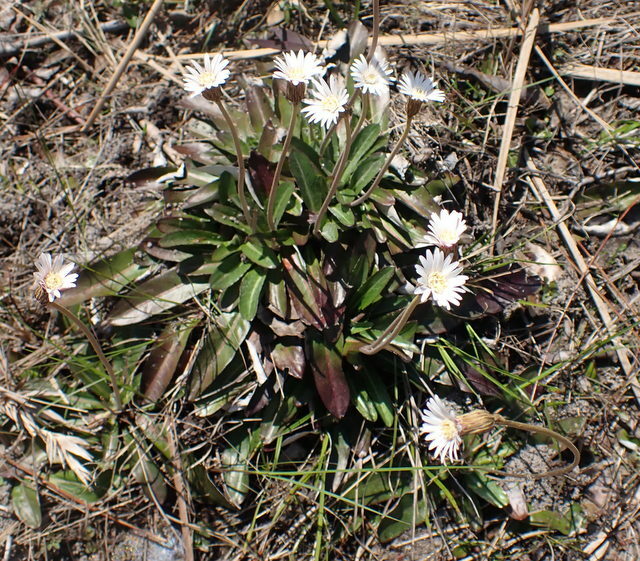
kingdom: Plantae
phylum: Tracheophyta
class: Magnoliopsida
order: Asterales
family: Asteraceae
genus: Chaptalia
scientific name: Chaptalia tomentosa
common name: Woolly sunbonnet
